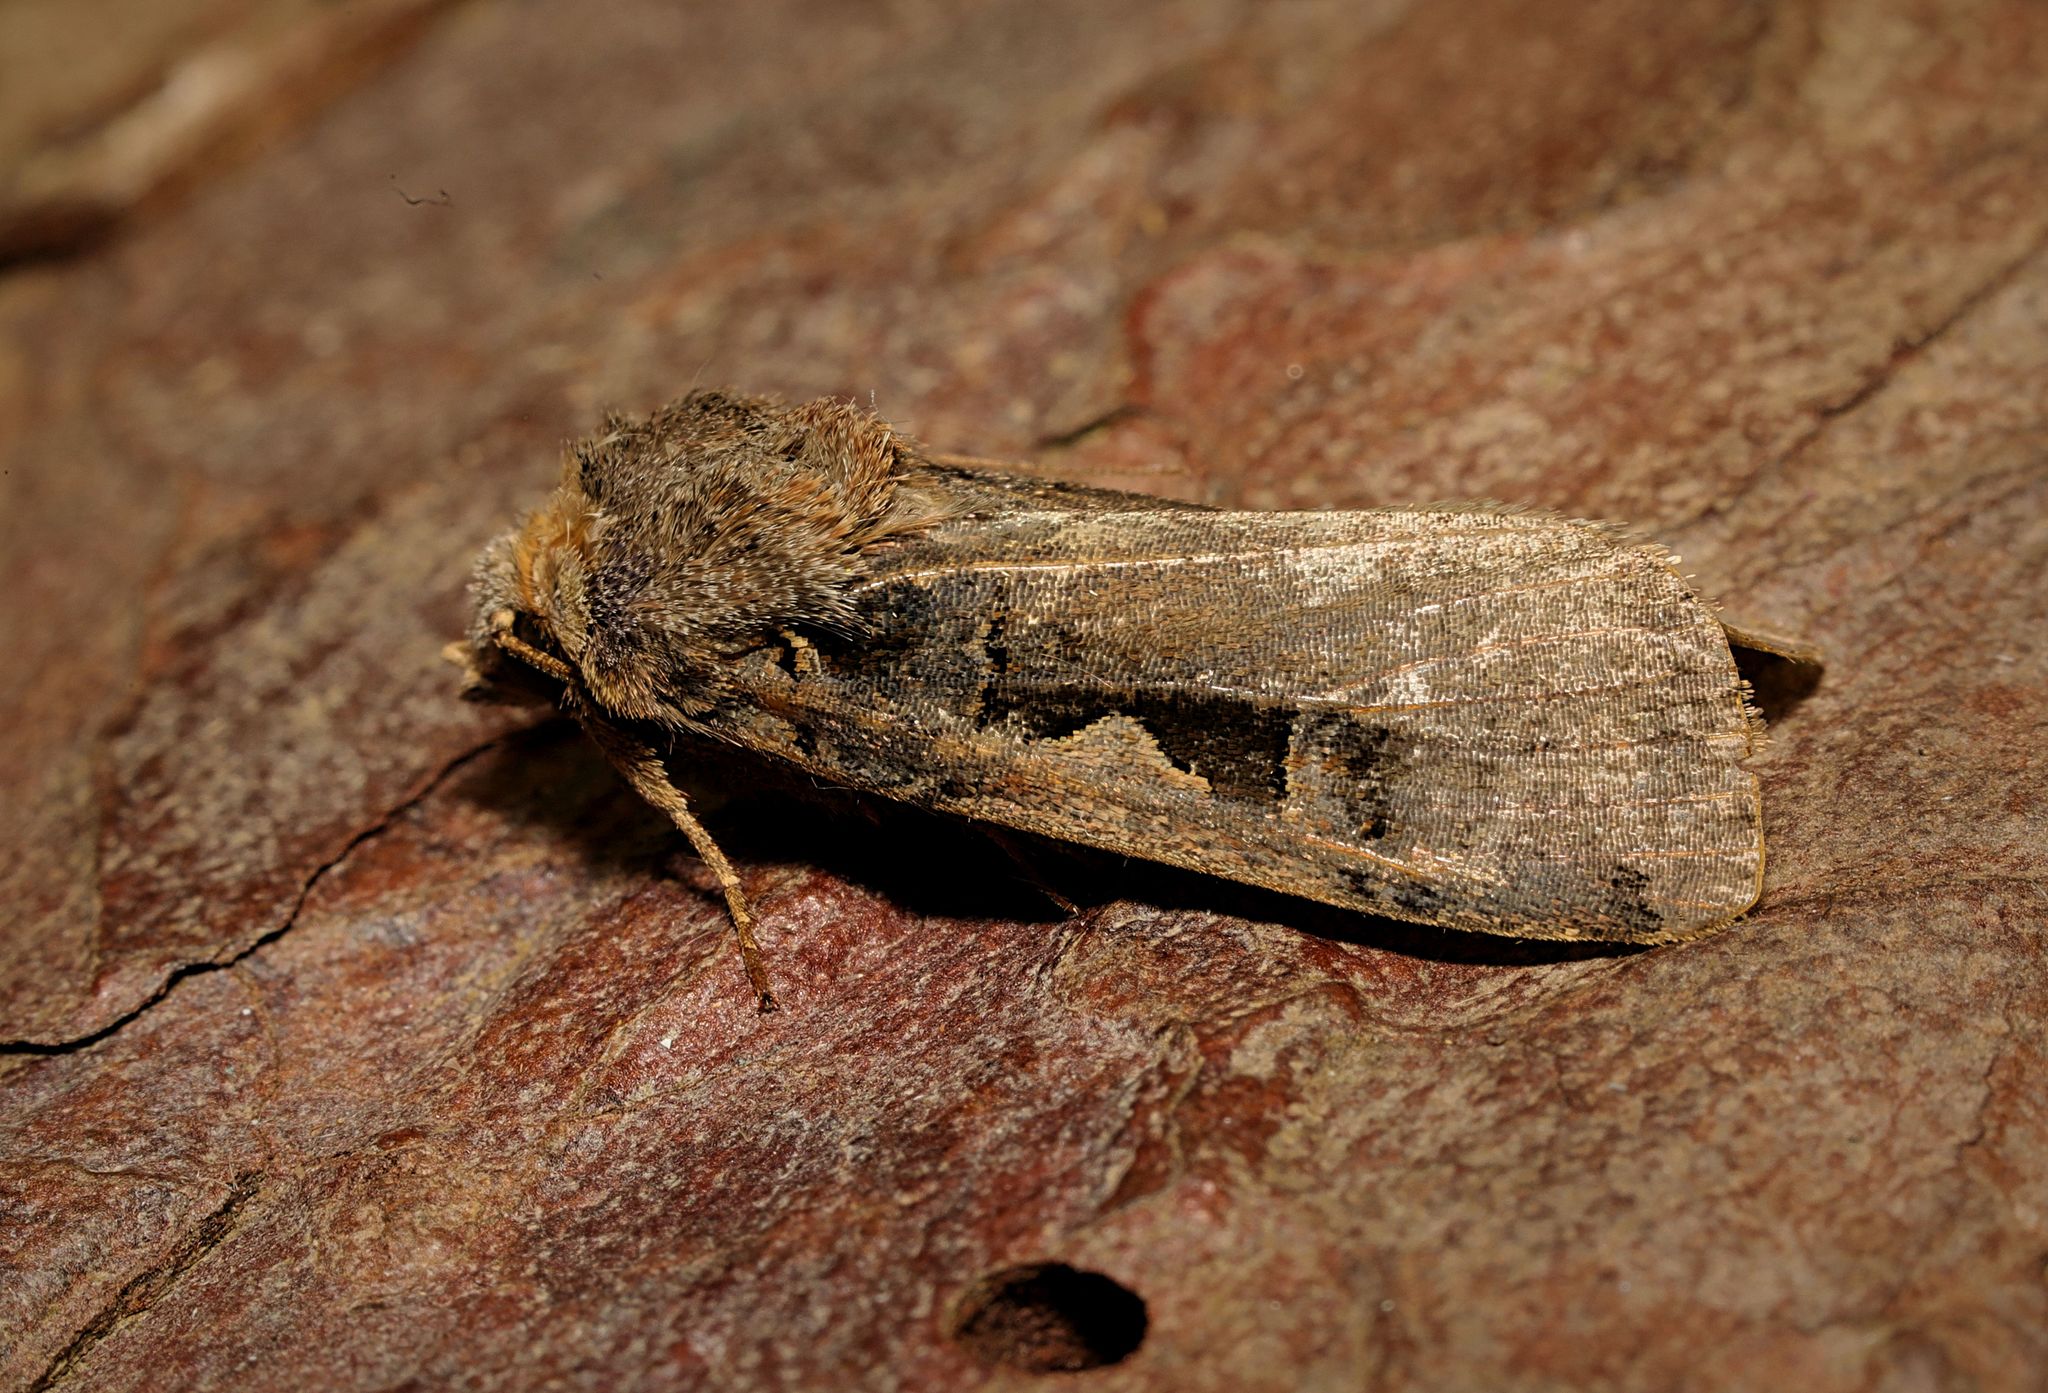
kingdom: Animalia
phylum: Arthropoda
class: Insecta
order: Lepidoptera
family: Noctuidae
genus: Xestia
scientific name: Xestia c-nigrum
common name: Setaceous hebrew character
